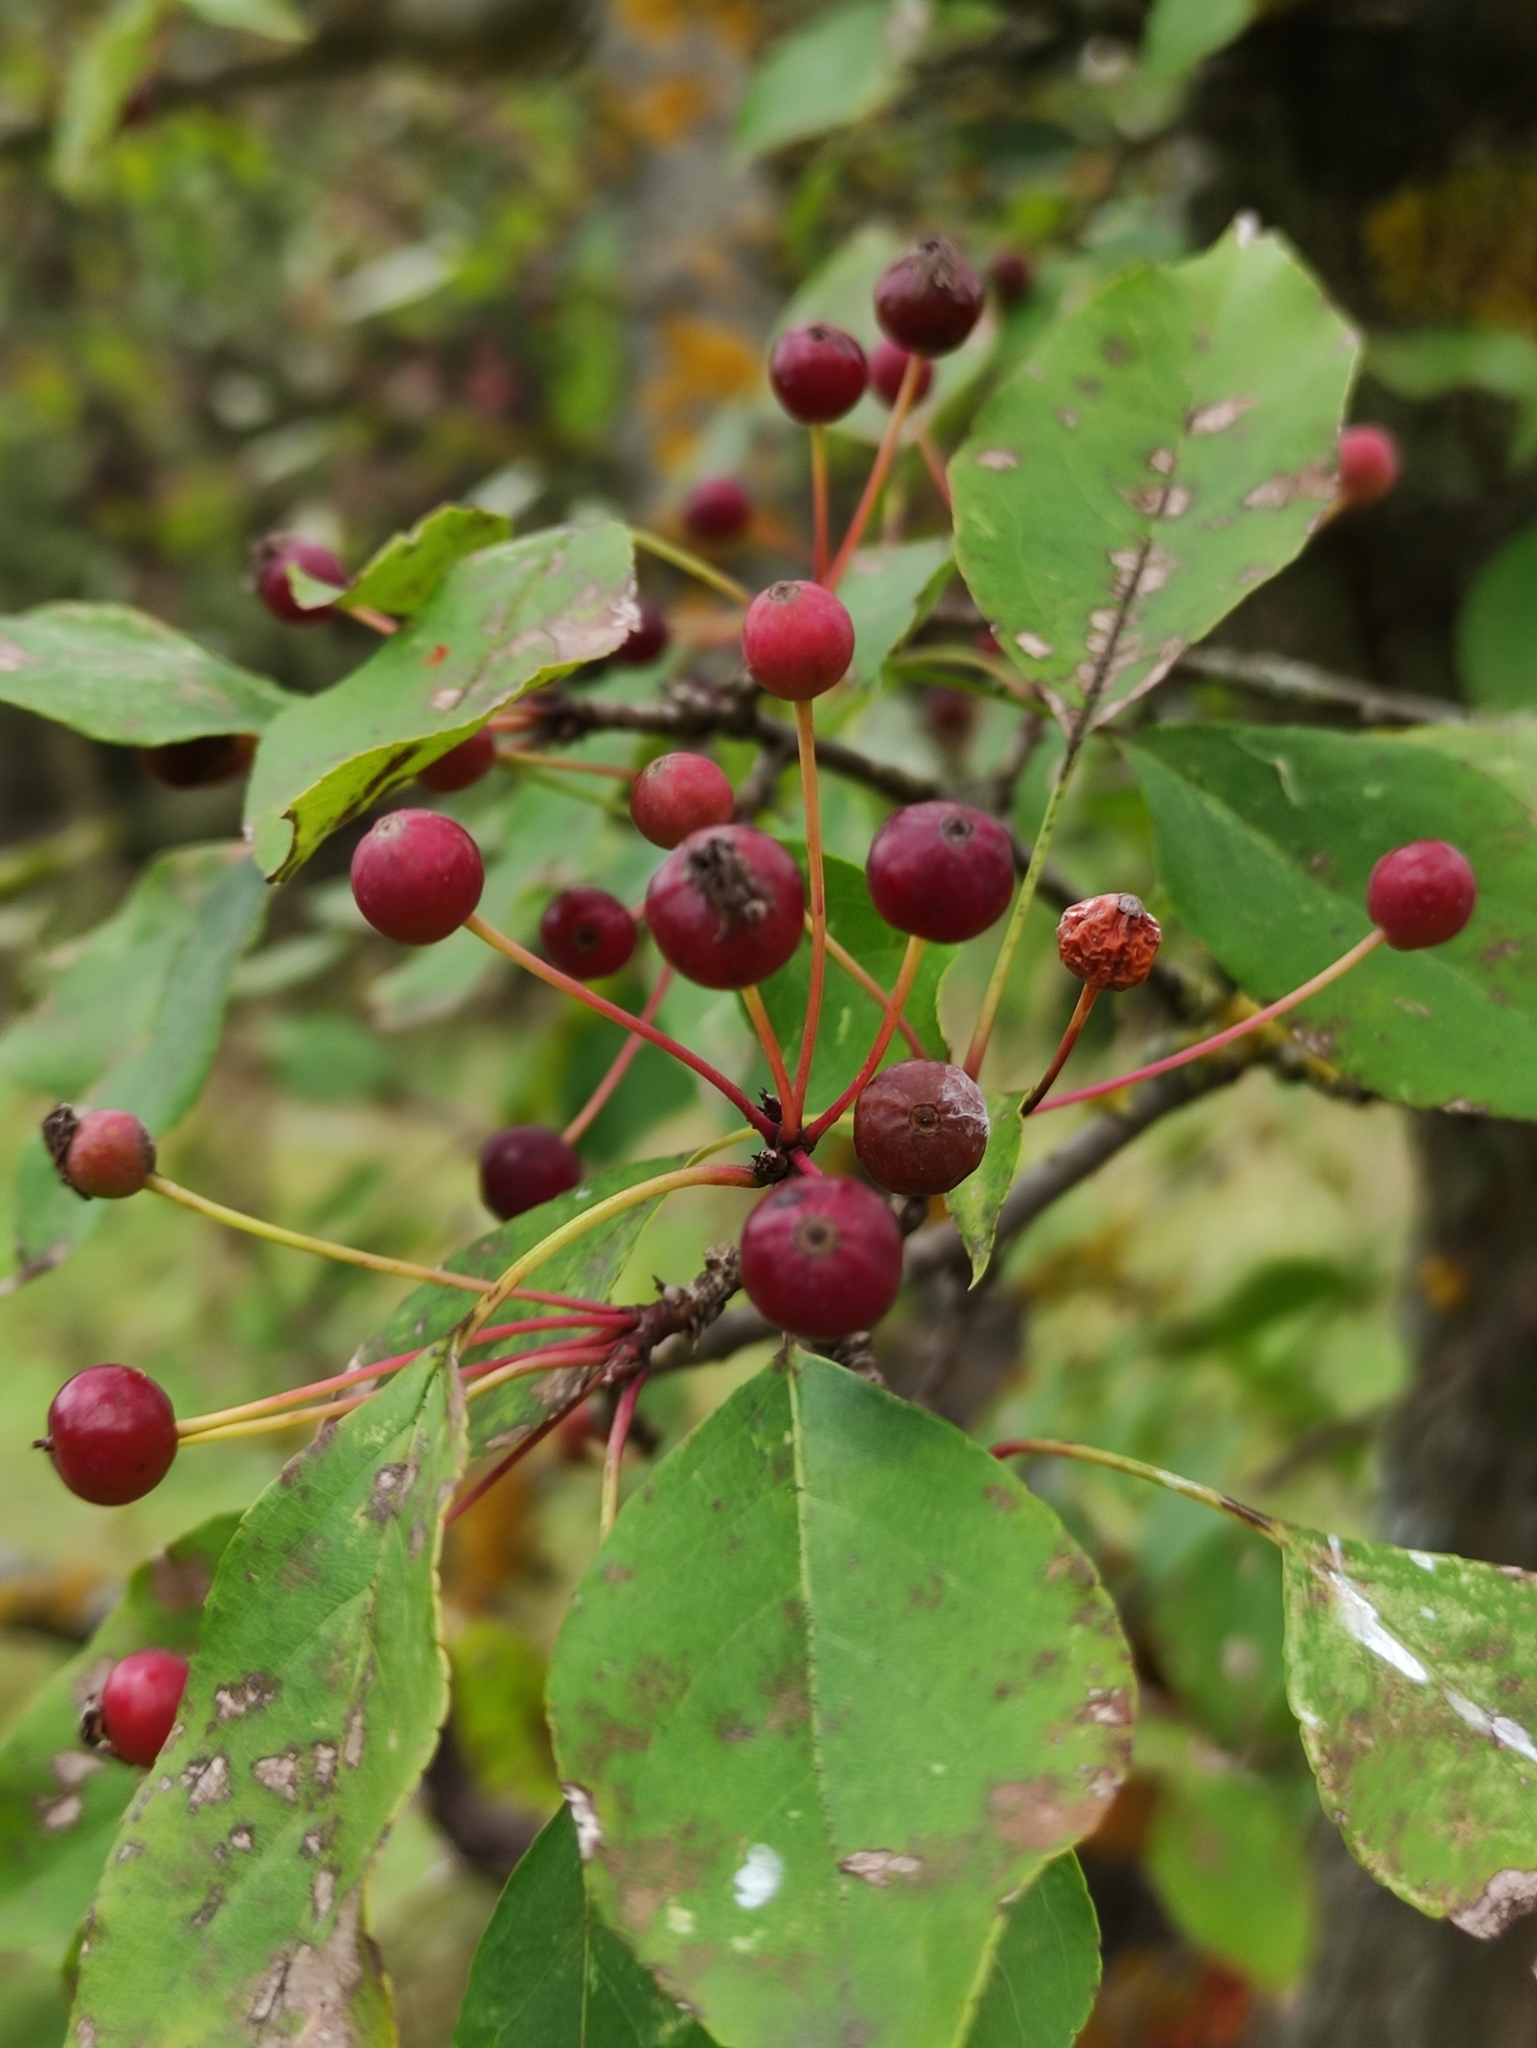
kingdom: Plantae
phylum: Tracheophyta
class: Magnoliopsida
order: Rosales
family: Rosaceae
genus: Malus
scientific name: Malus baccata
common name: Siberian crab
